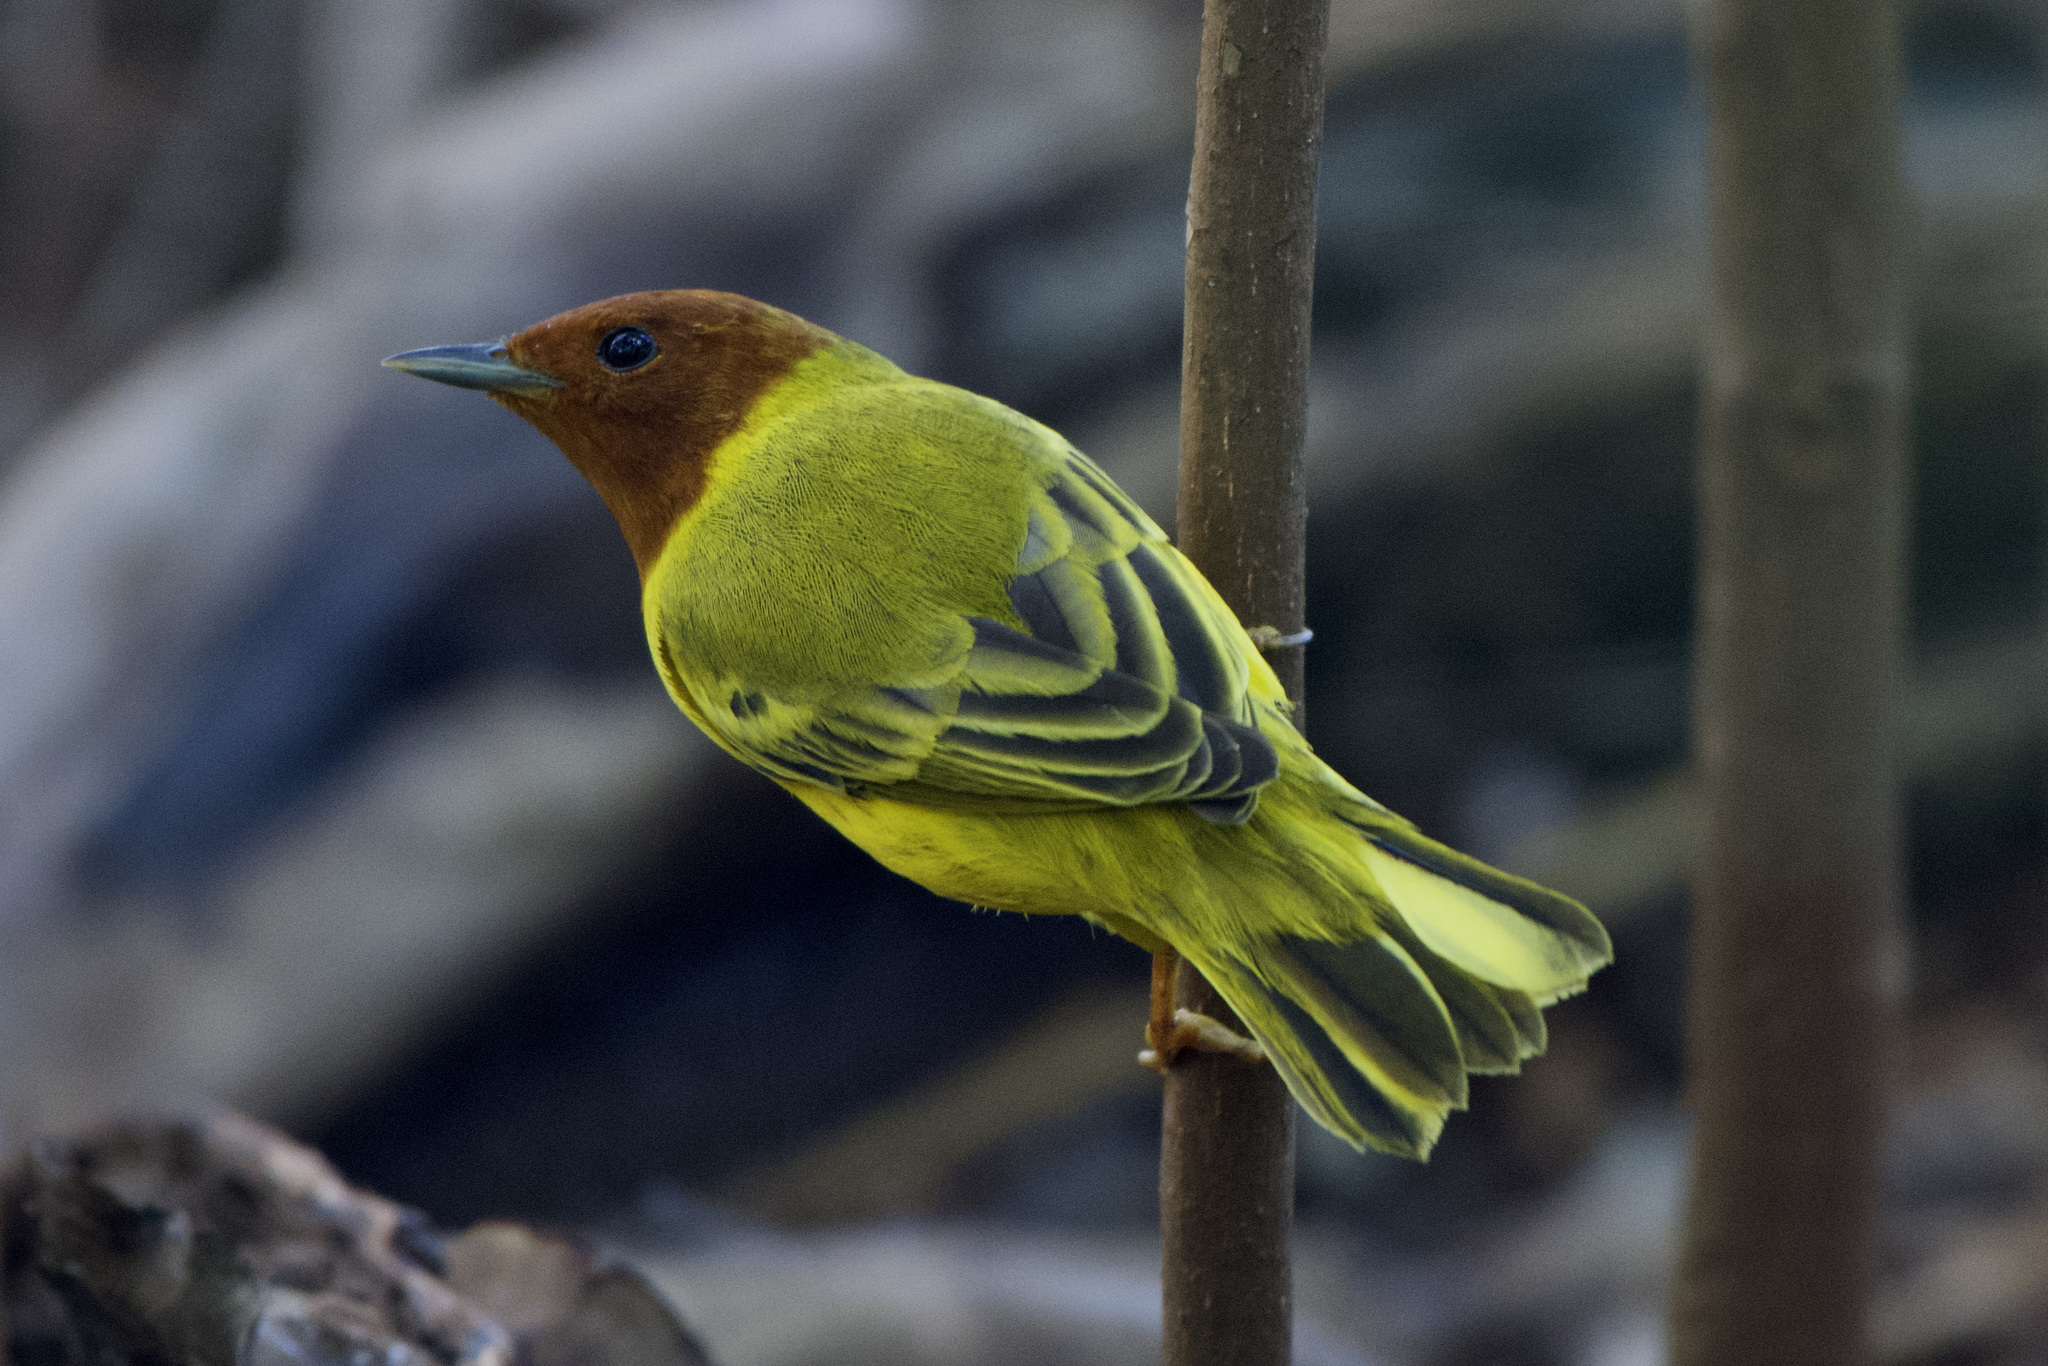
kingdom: Animalia
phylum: Chordata
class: Aves
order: Passeriformes
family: Parulidae
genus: Setophaga
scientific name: Setophaga petechia
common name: Yellow warbler
